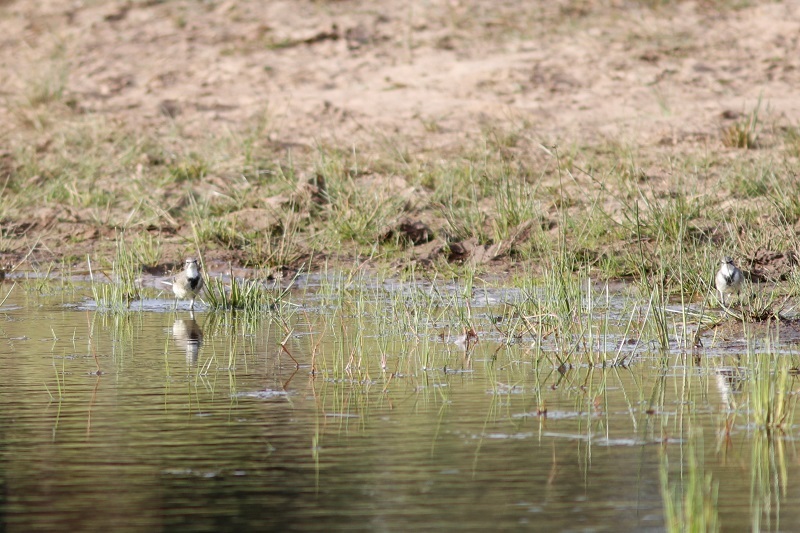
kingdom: Animalia
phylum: Chordata
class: Aves
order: Passeriformes
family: Motacillidae
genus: Motacilla
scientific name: Motacilla capensis
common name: Cape wagtail
